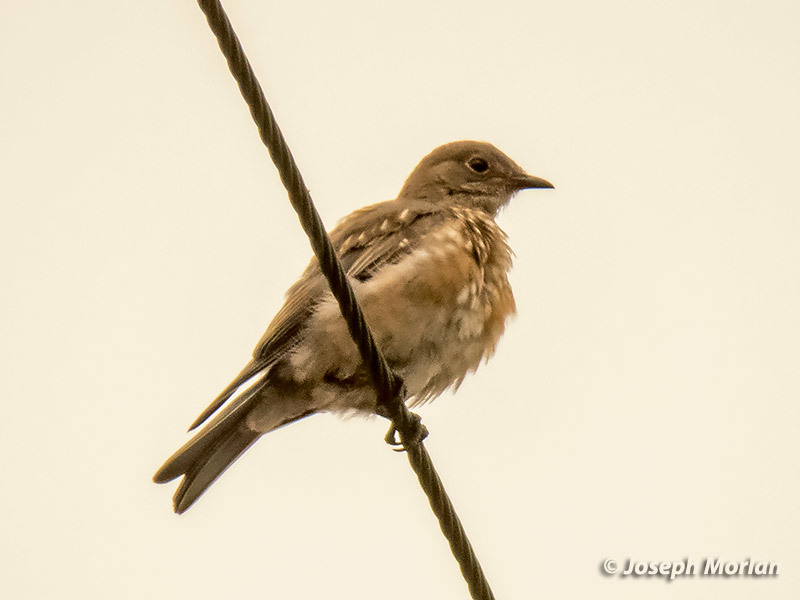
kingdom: Animalia
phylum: Chordata
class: Aves
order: Passeriformes
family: Turdidae
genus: Sialia
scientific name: Sialia mexicana
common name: Western bluebird
